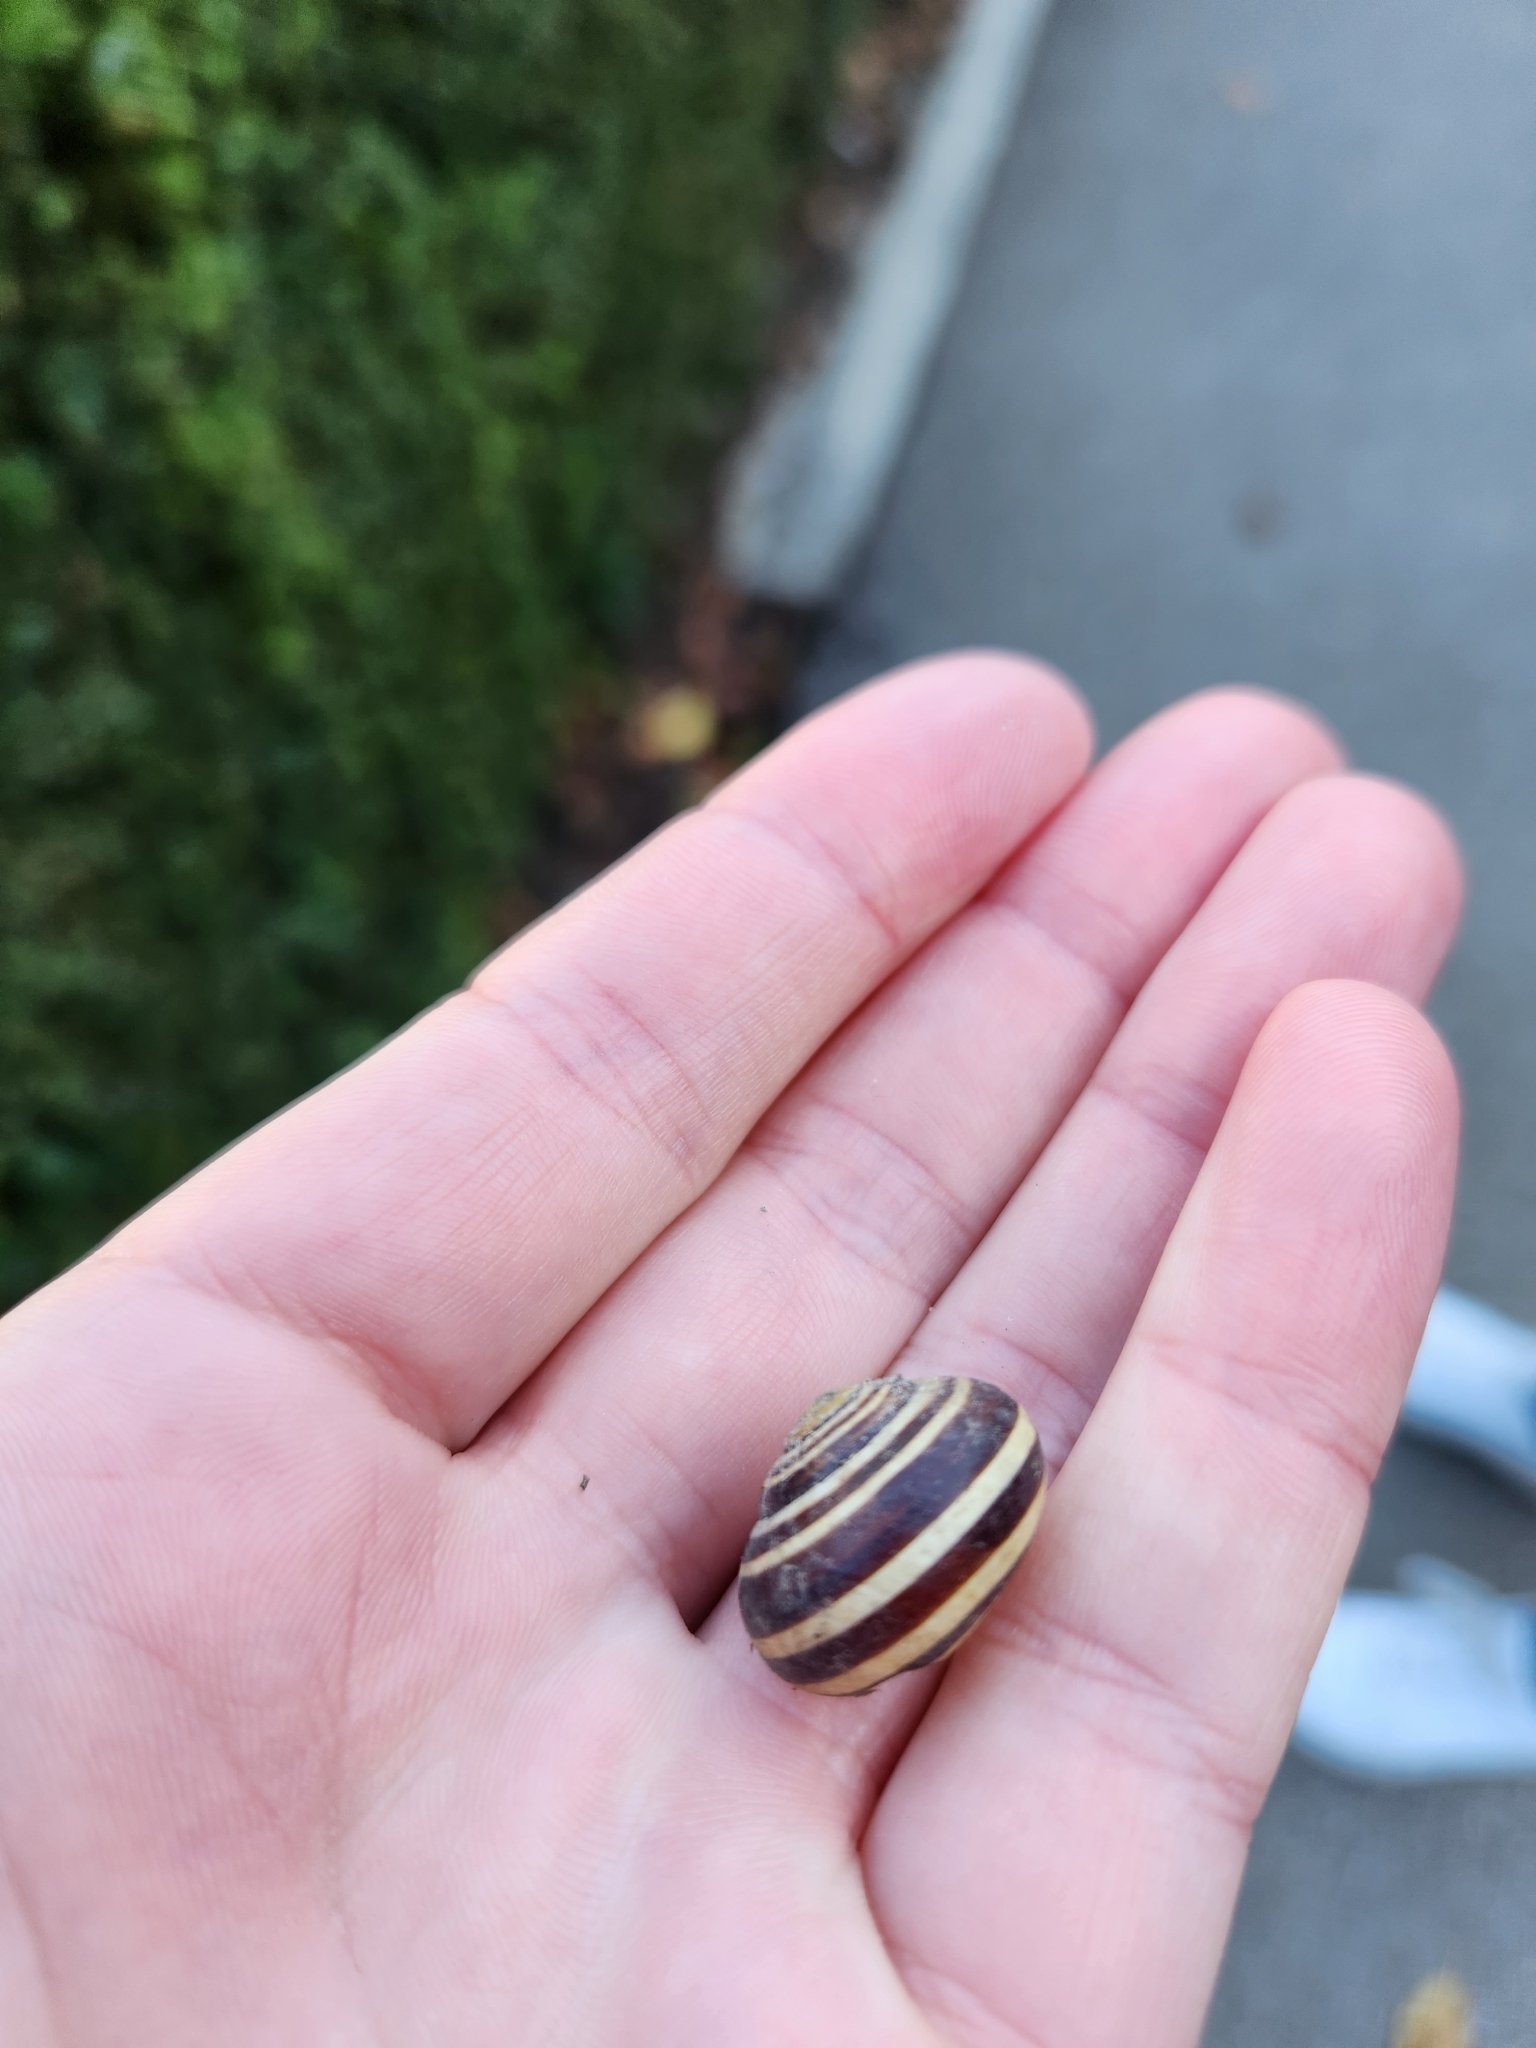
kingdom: Animalia
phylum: Mollusca
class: Gastropoda
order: Stylommatophora
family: Helicidae
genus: Cepaea
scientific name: Cepaea hortensis
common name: White-lip gardensnail
